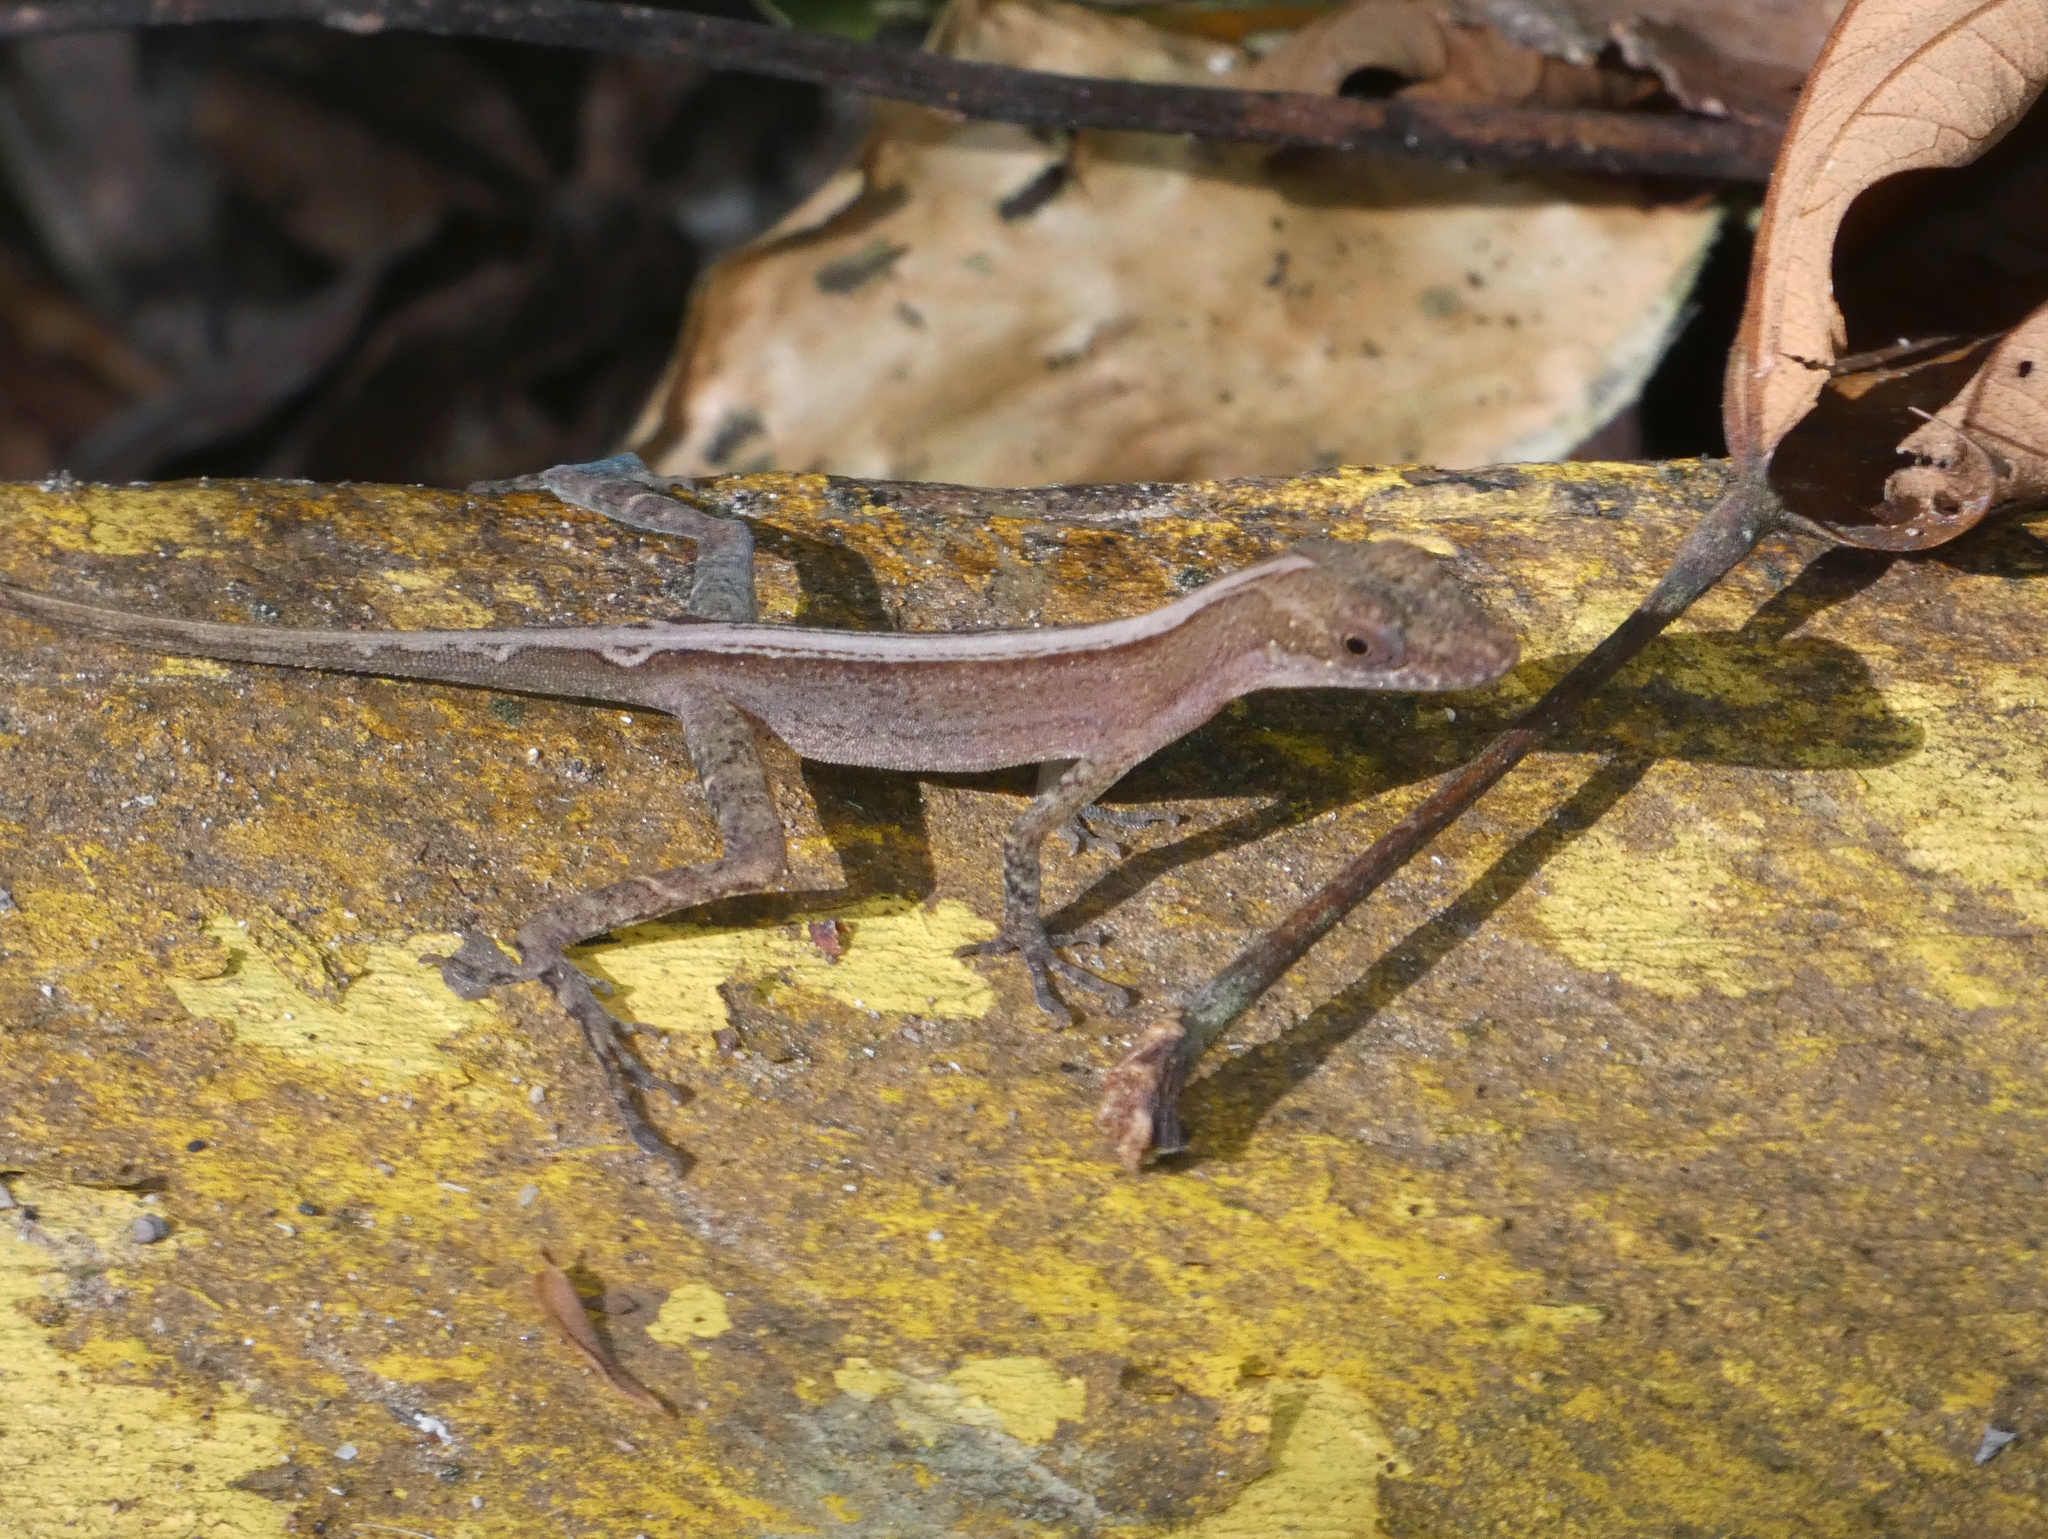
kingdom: Animalia
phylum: Chordata
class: Squamata
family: Dactyloidae
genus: Anolis
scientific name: Anolis apletophallus
